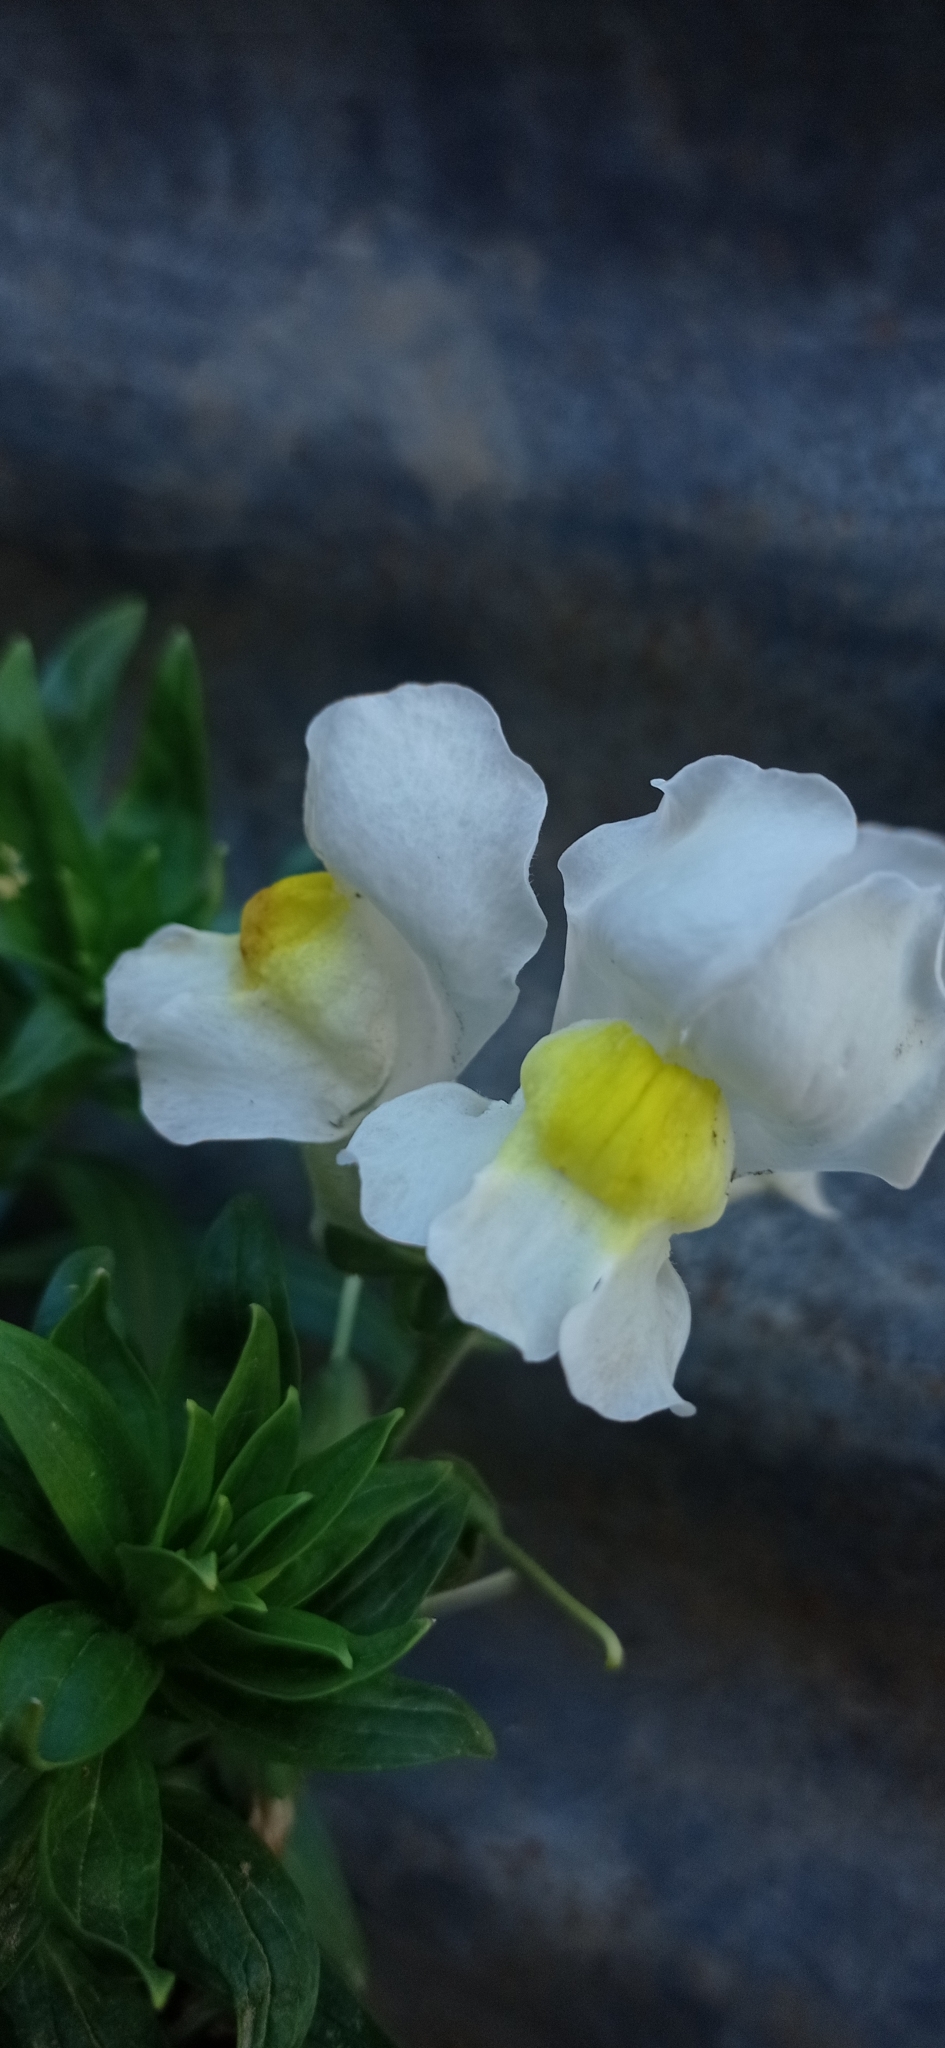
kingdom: Plantae
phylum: Tracheophyta
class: Magnoliopsida
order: Lamiales
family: Plantaginaceae
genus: Antirrhinum
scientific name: Antirrhinum majus
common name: Snapdragon
